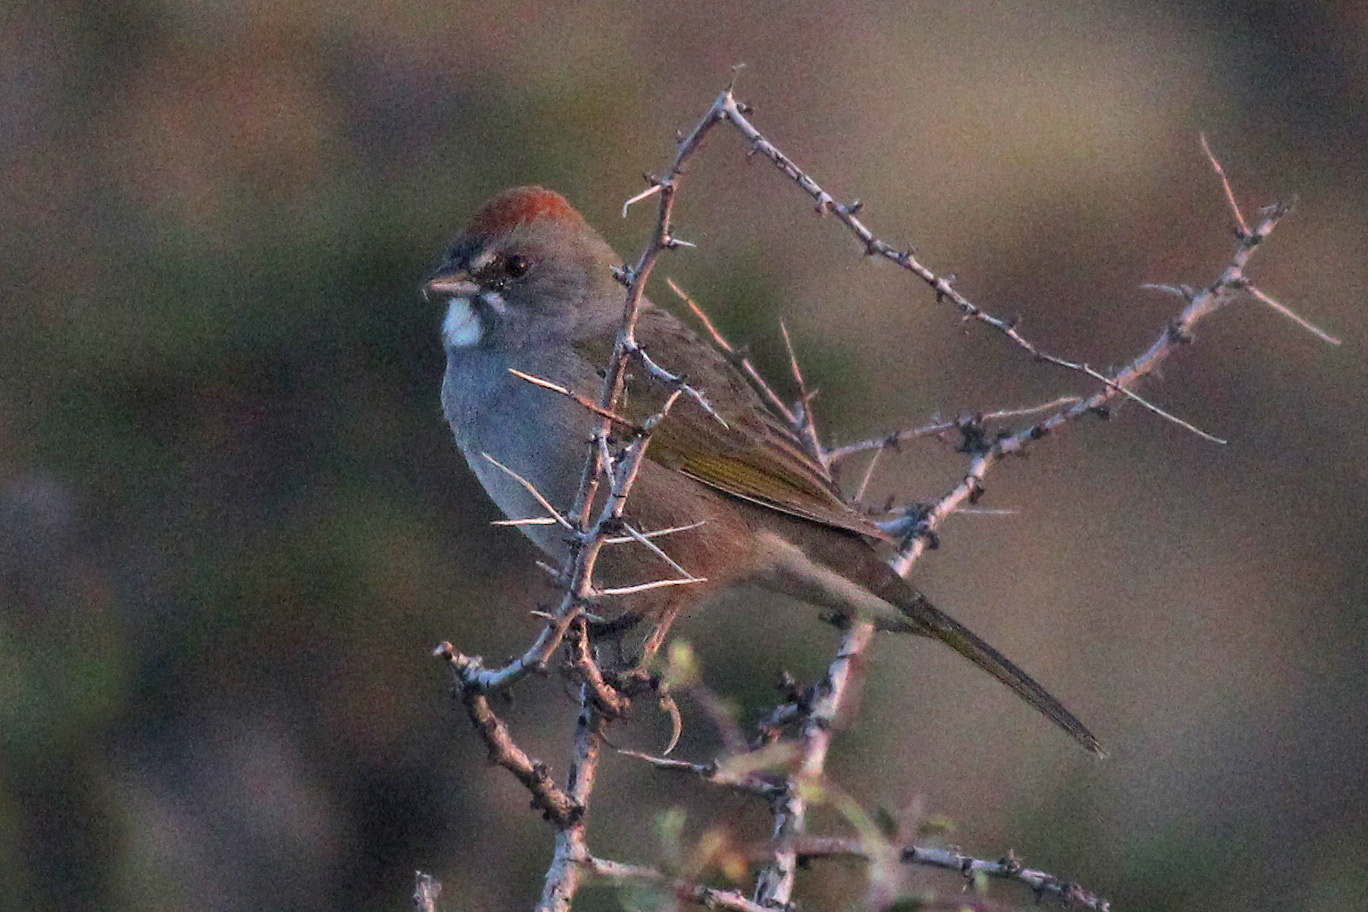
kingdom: Animalia
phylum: Chordata
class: Aves
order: Passeriformes
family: Passerellidae
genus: Pipilo
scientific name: Pipilo chlorurus
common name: Green-tailed towhee
